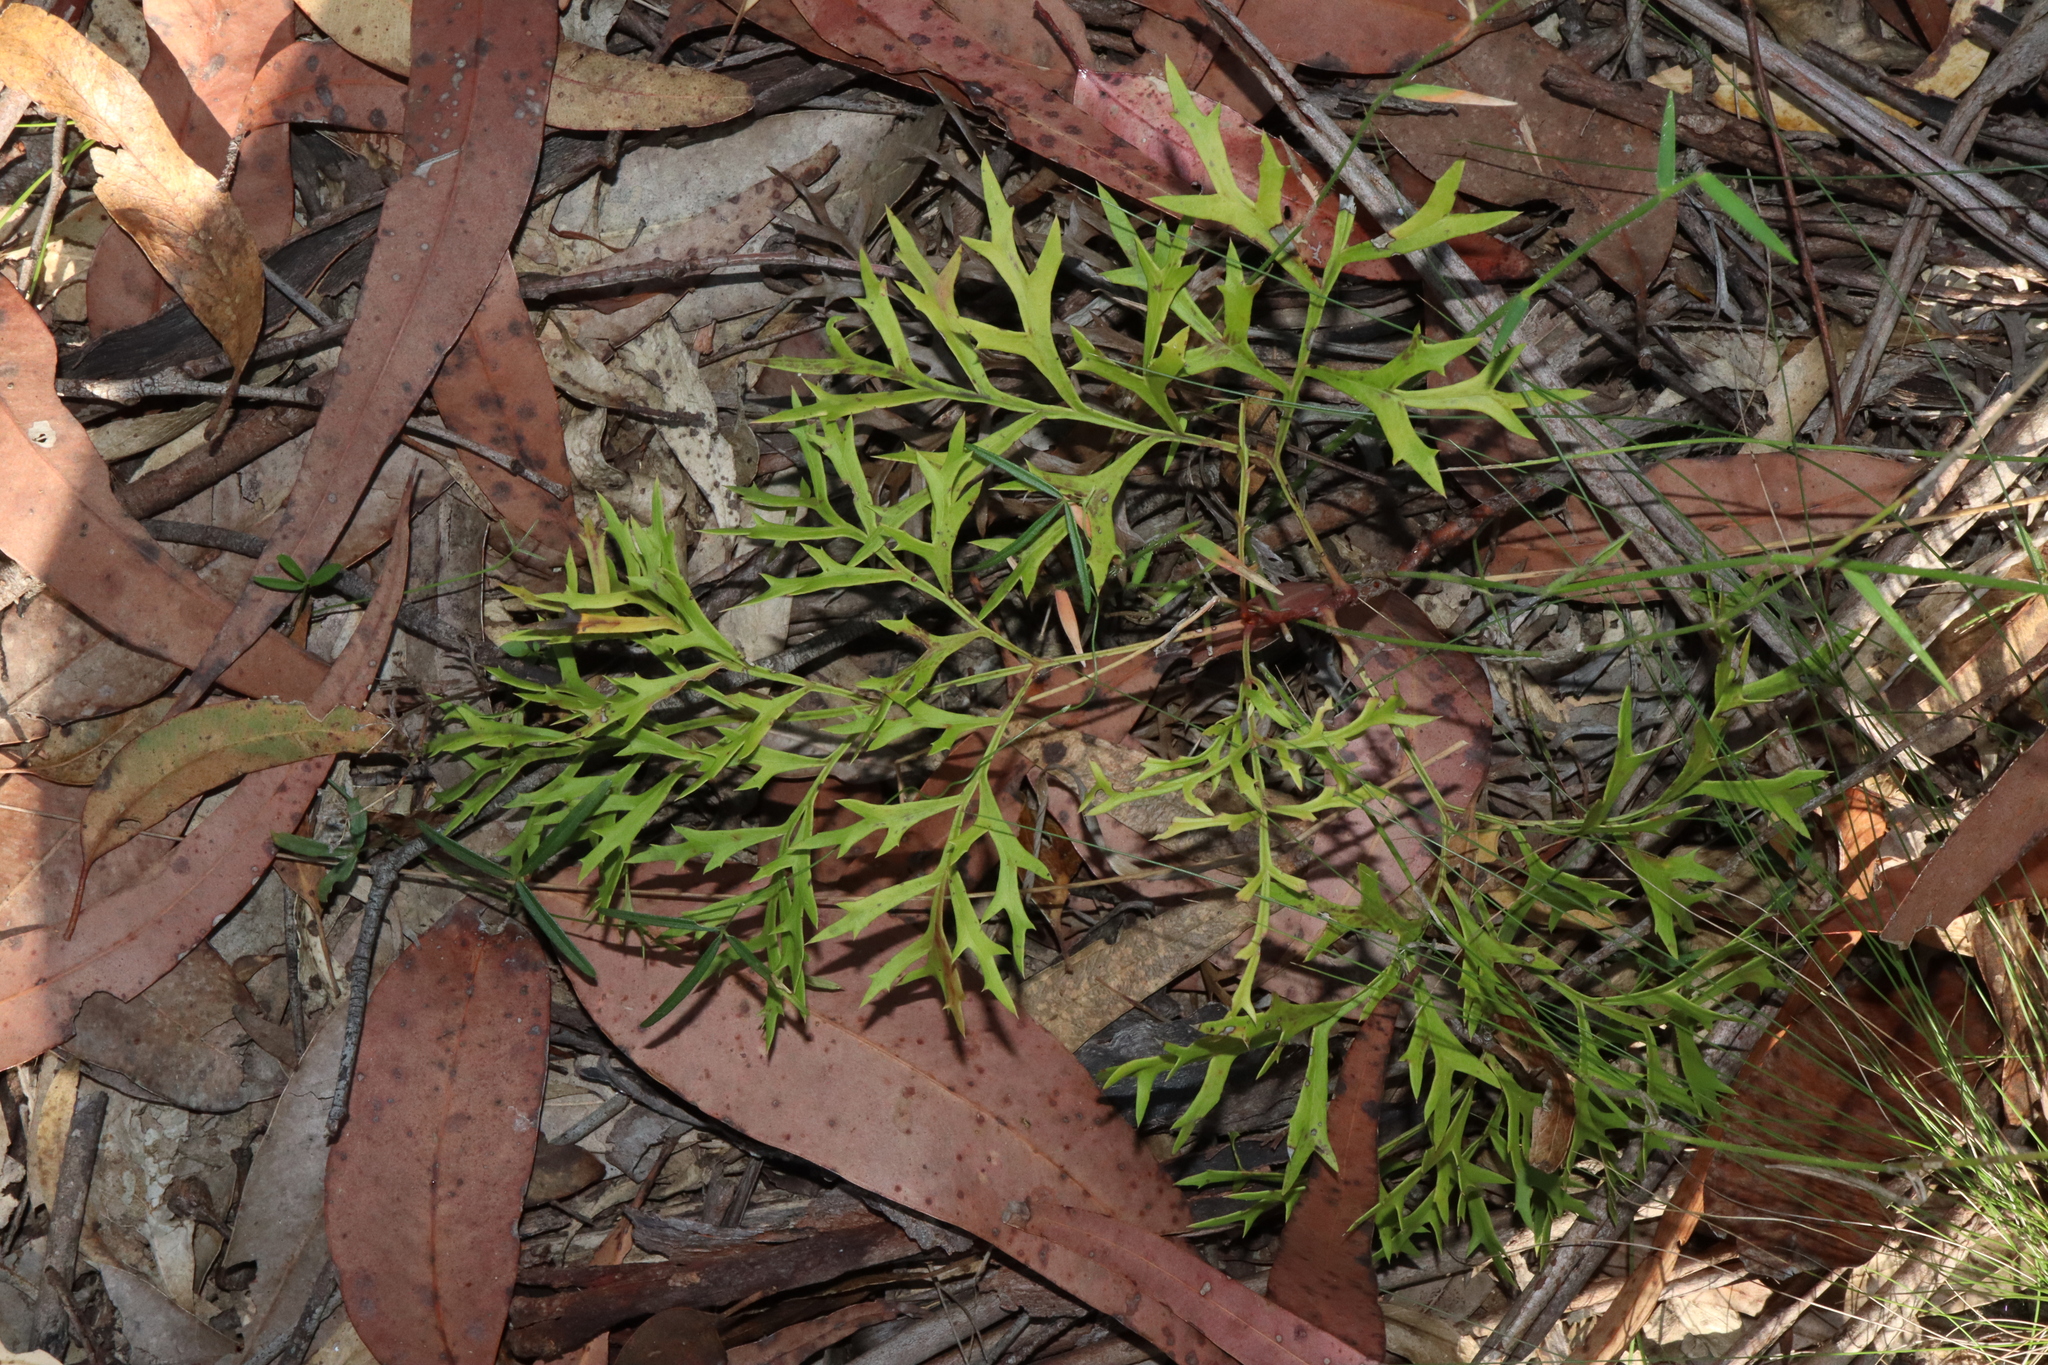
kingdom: Plantae
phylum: Tracheophyta
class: Magnoliopsida
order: Proteales
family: Proteaceae
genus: Lomatia
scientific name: Lomatia silaifolia
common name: Crinklebush
